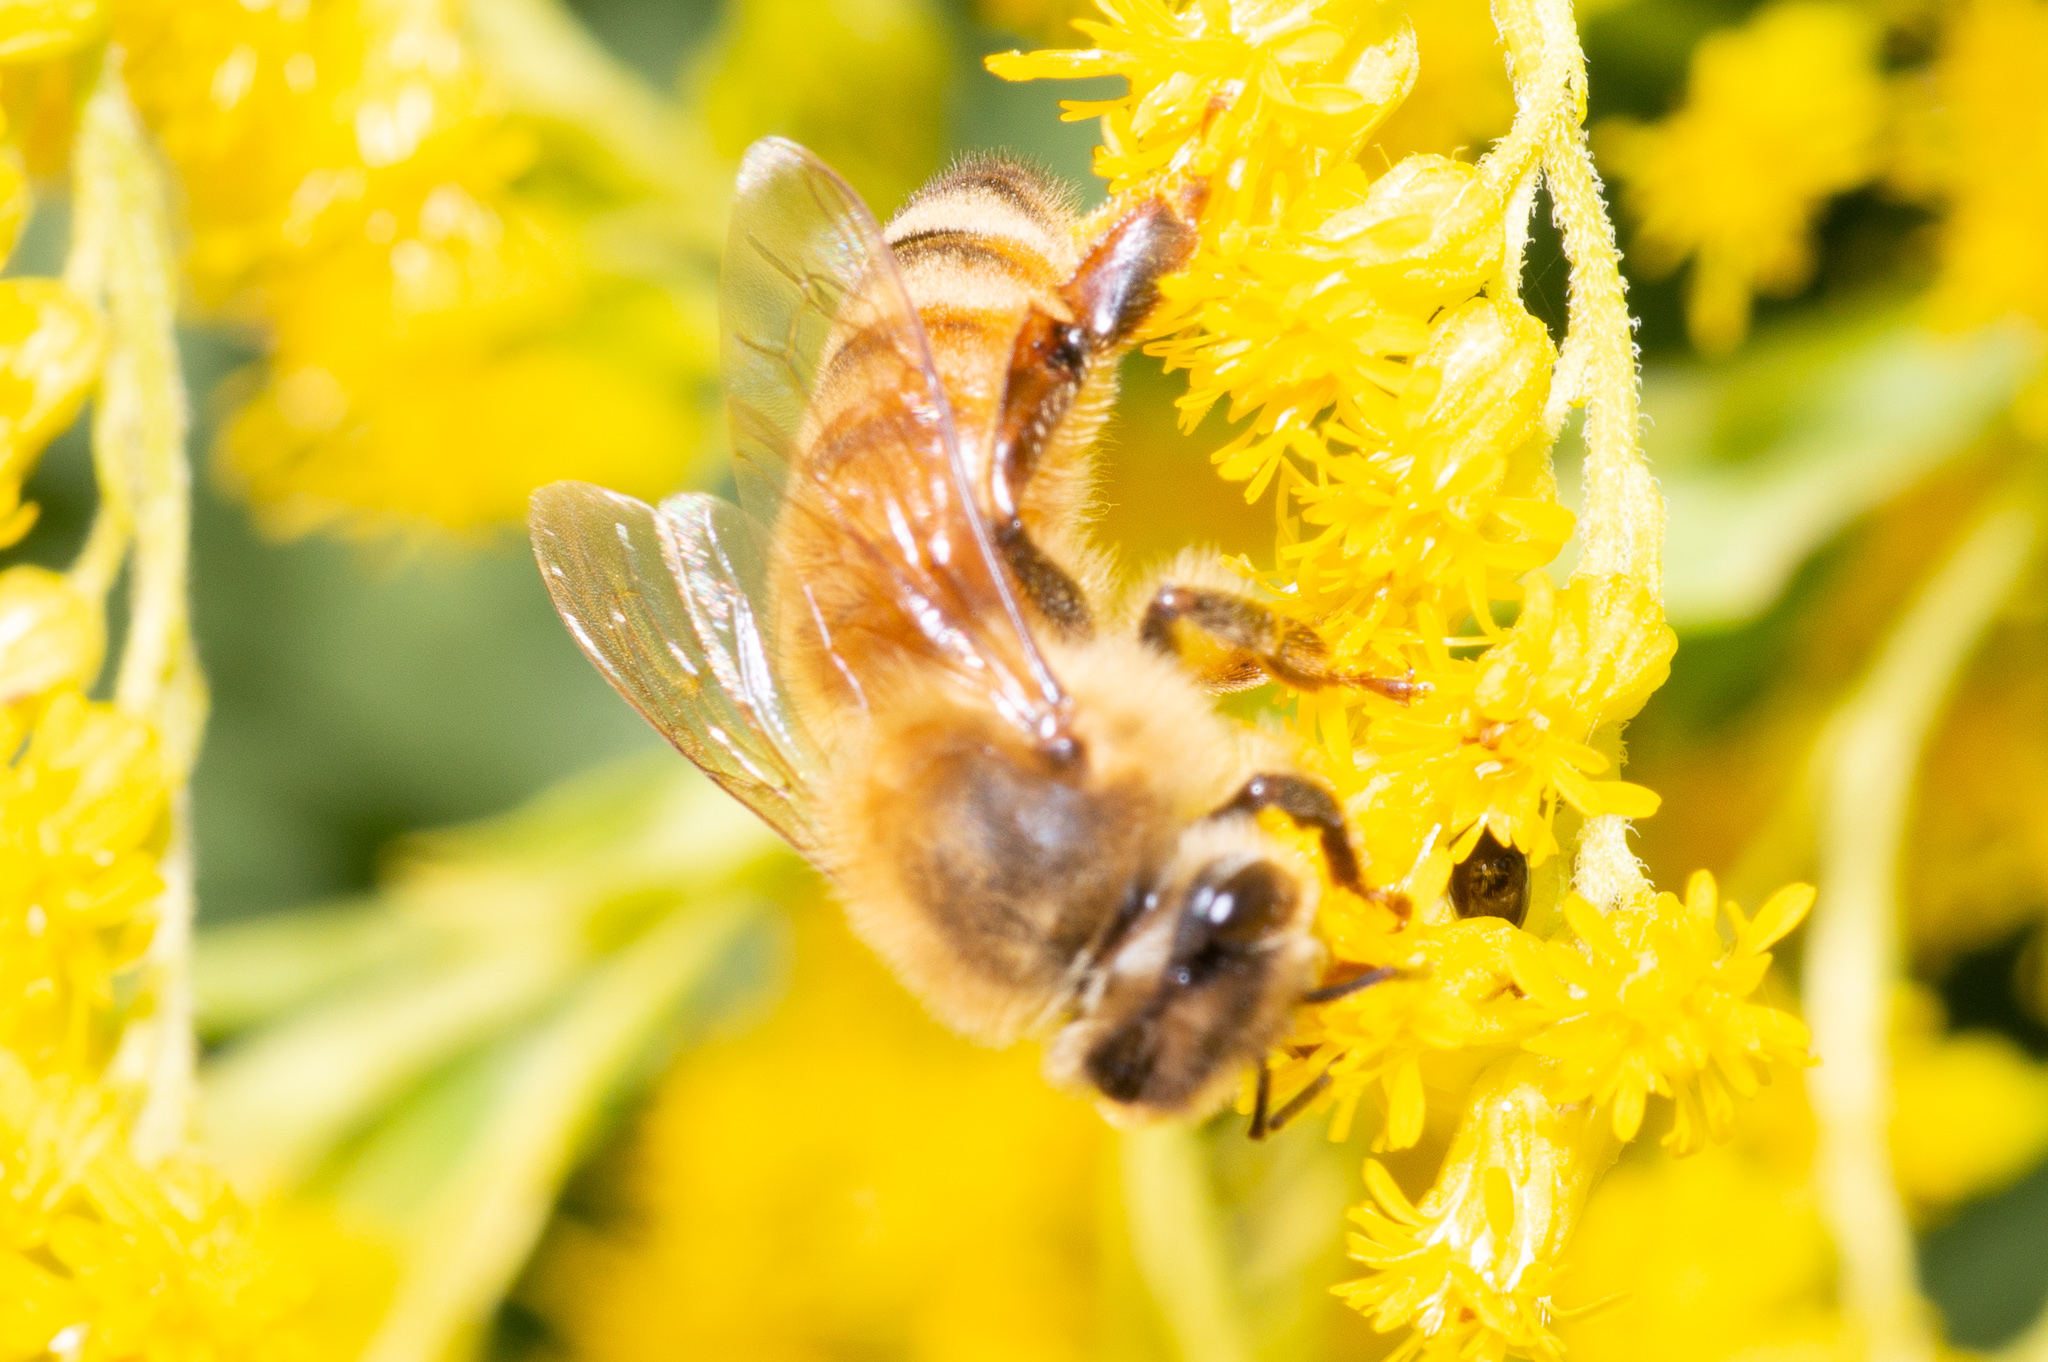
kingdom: Animalia
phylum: Arthropoda
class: Insecta
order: Hymenoptera
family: Apidae
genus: Apis
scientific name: Apis mellifera
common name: Honey bee
